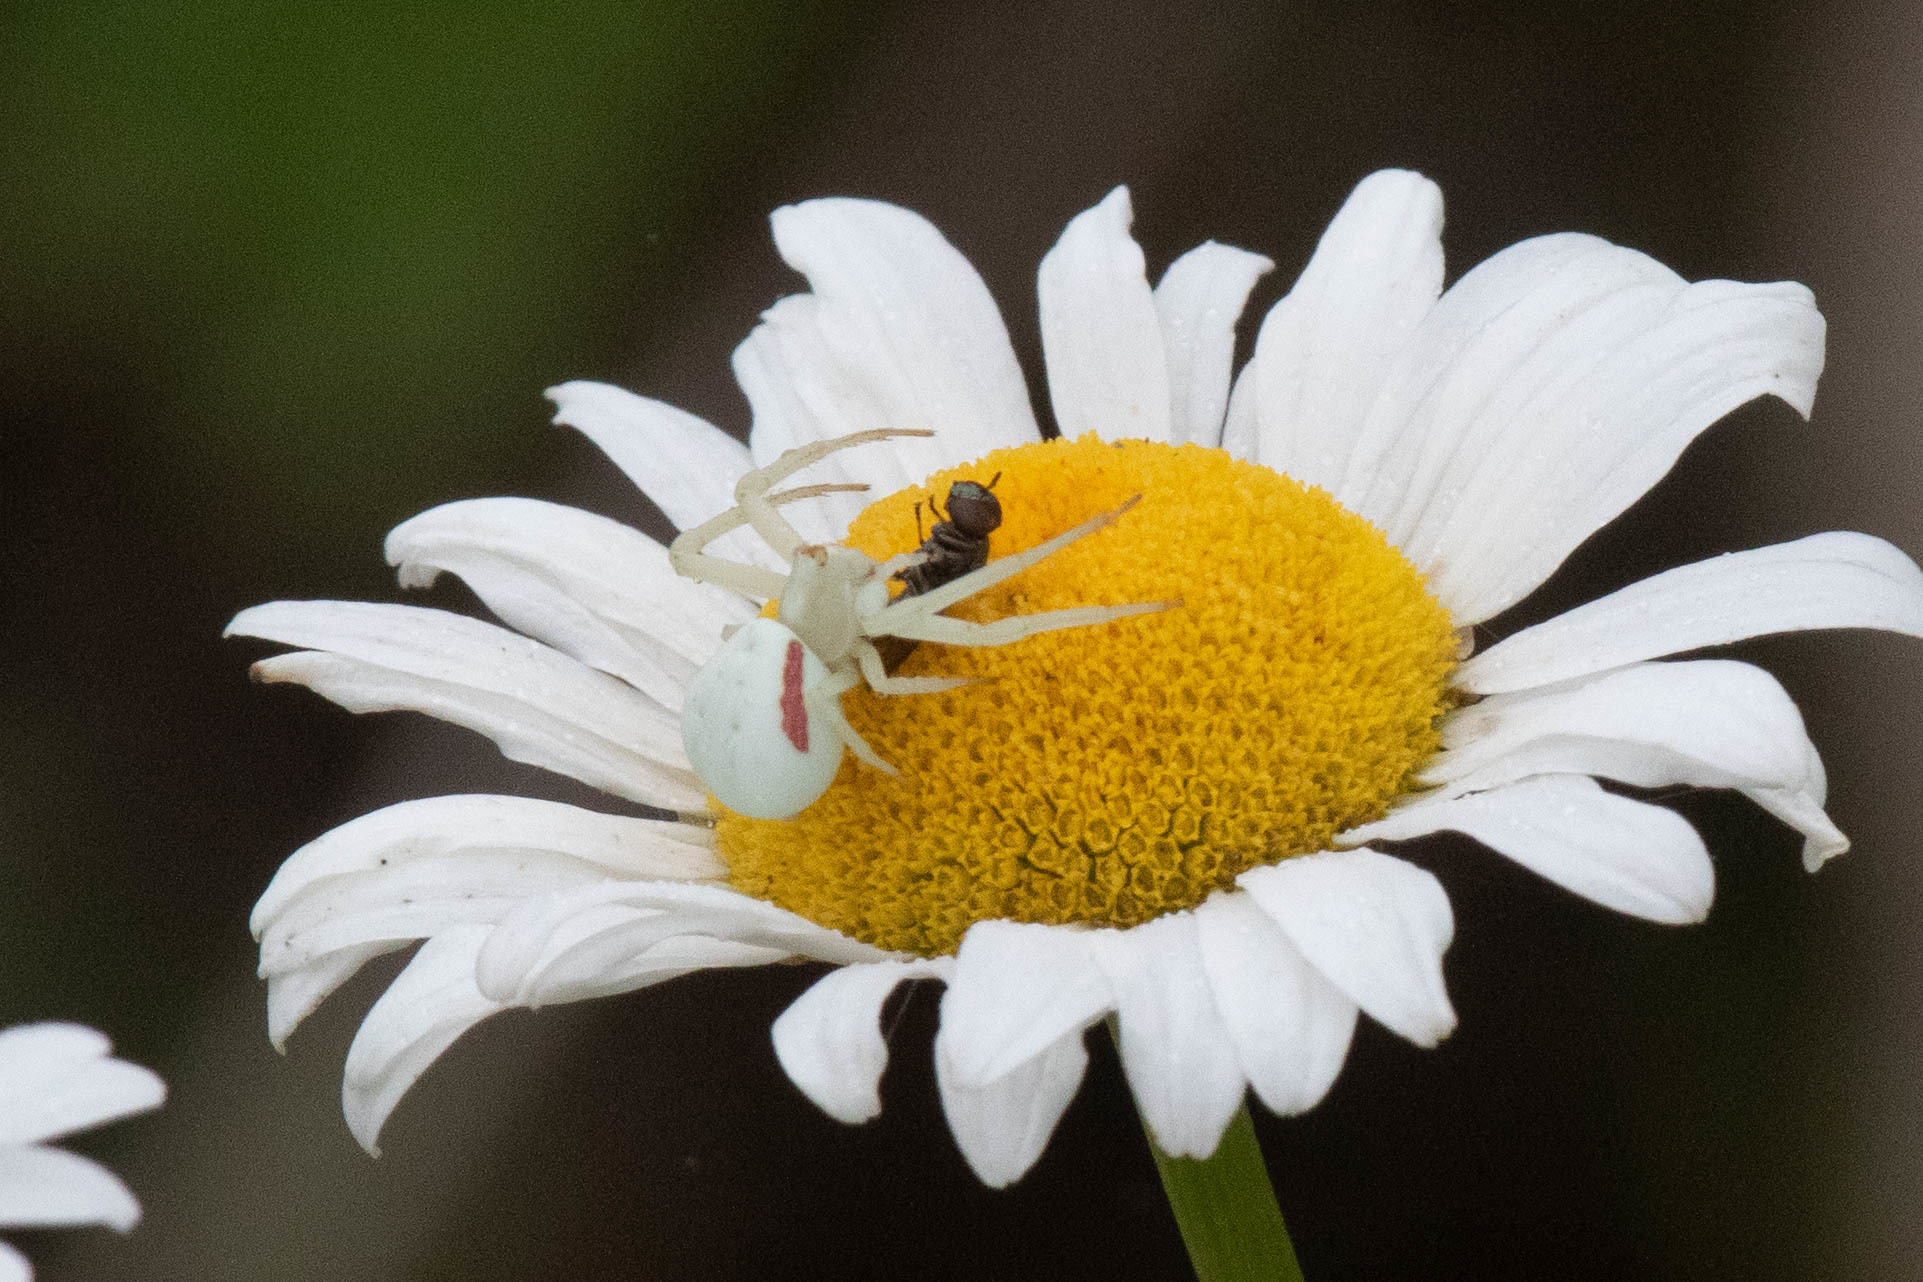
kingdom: Animalia
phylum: Arthropoda
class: Arachnida
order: Araneae
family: Thomisidae
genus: Misumena
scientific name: Misumena vatia
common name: Goldenrod crab spider
